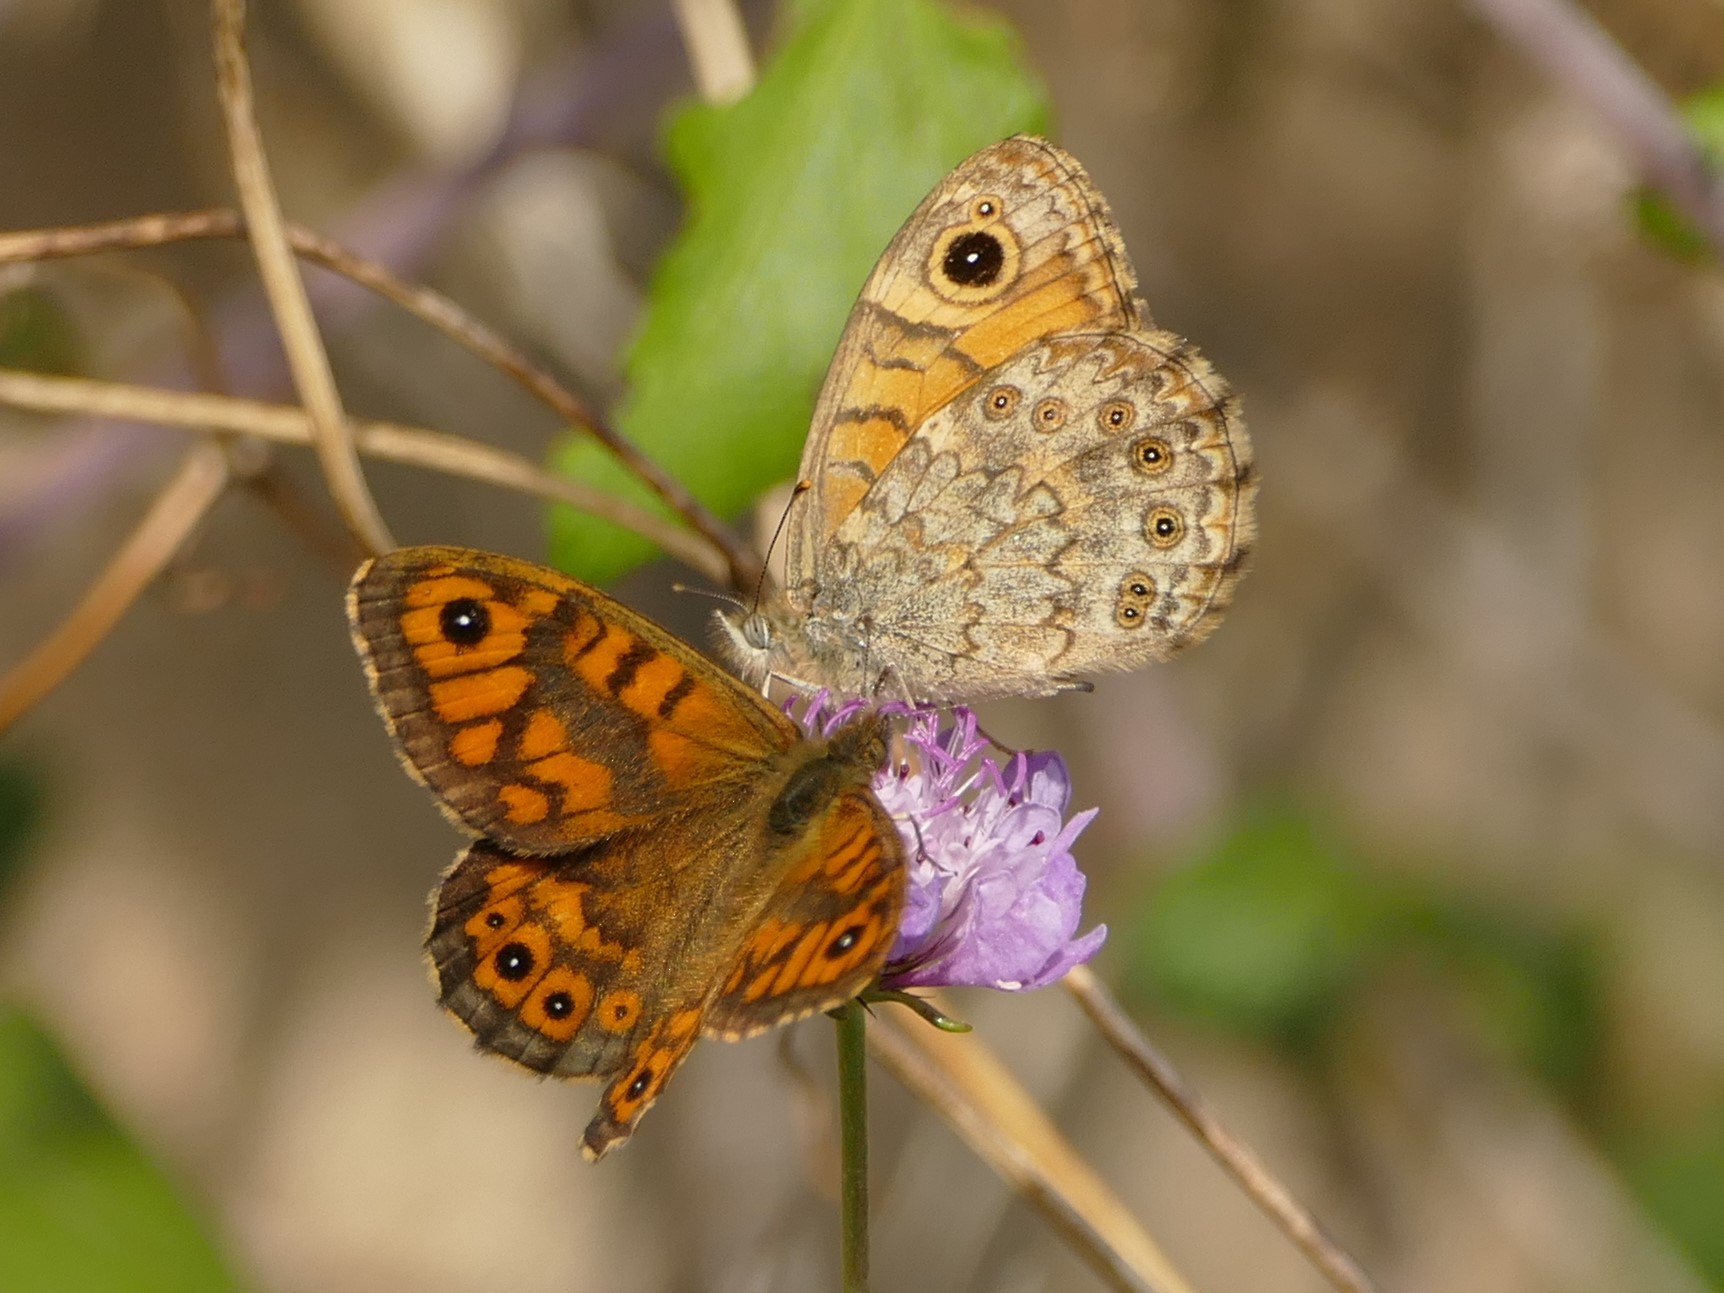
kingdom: Animalia
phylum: Arthropoda
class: Insecta
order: Lepidoptera
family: Nymphalidae
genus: Pararge
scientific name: Pararge Lasiommata megera
